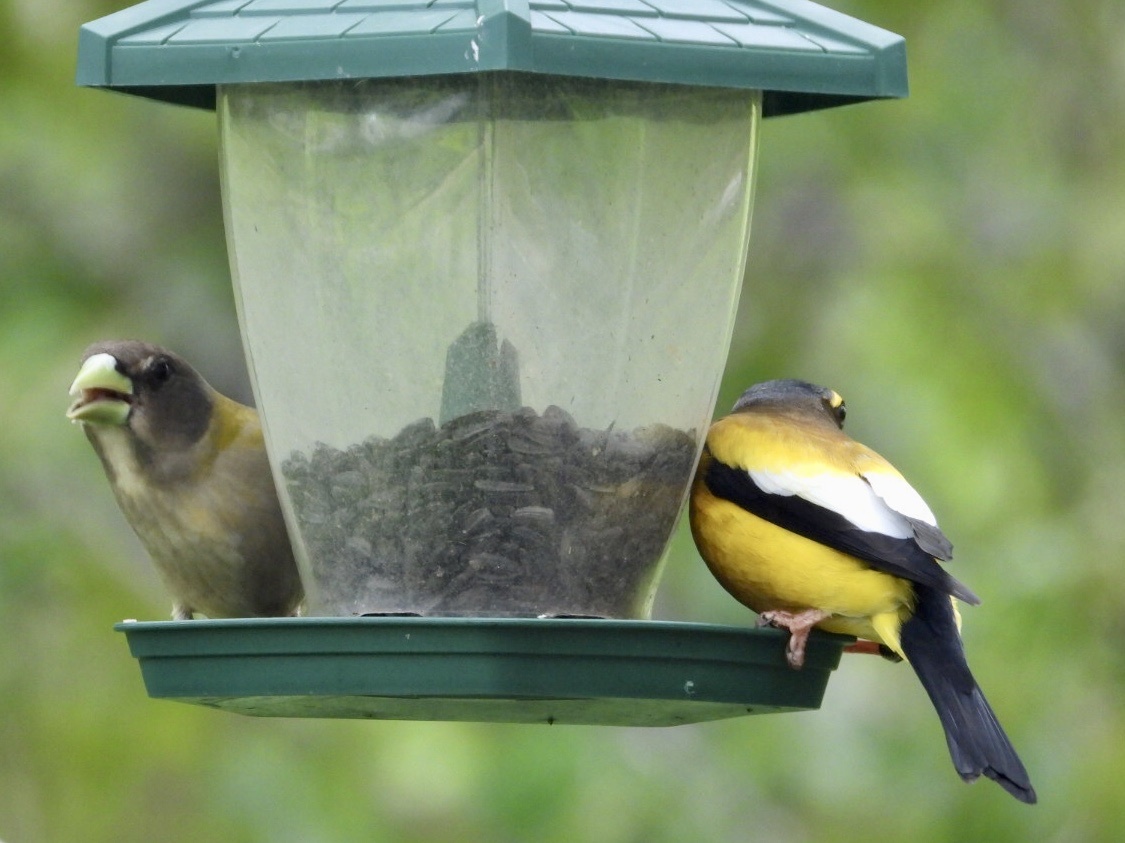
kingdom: Animalia
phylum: Chordata
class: Aves
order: Passeriformes
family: Fringillidae
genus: Hesperiphona
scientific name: Hesperiphona vespertina
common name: Evening grosbeak
